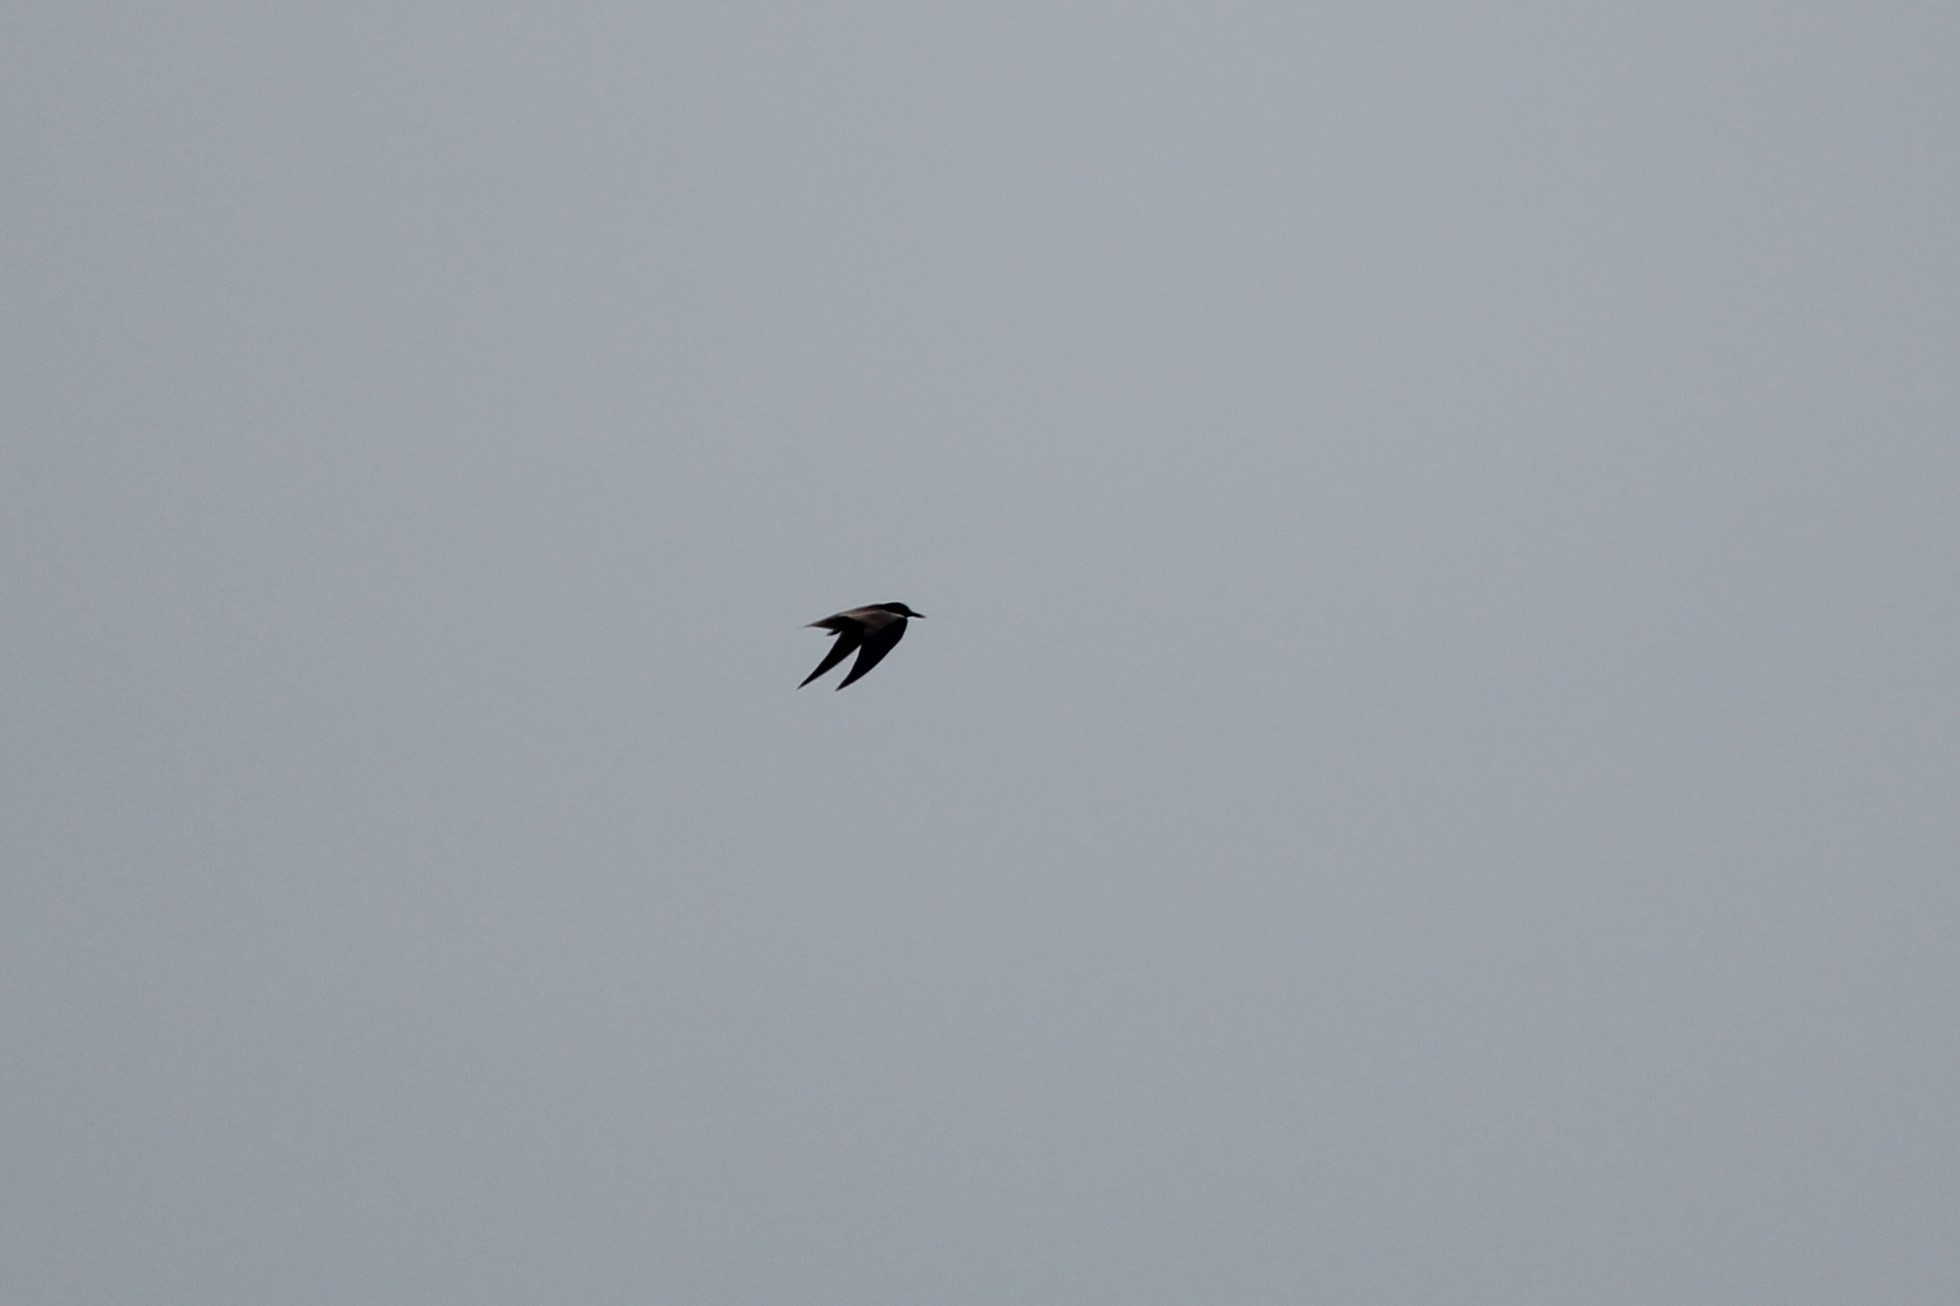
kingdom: Animalia
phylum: Chordata
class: Aves
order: Charadriiformes
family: Laridae
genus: Chlidonias
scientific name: Chlidonias niger
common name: Black tern
